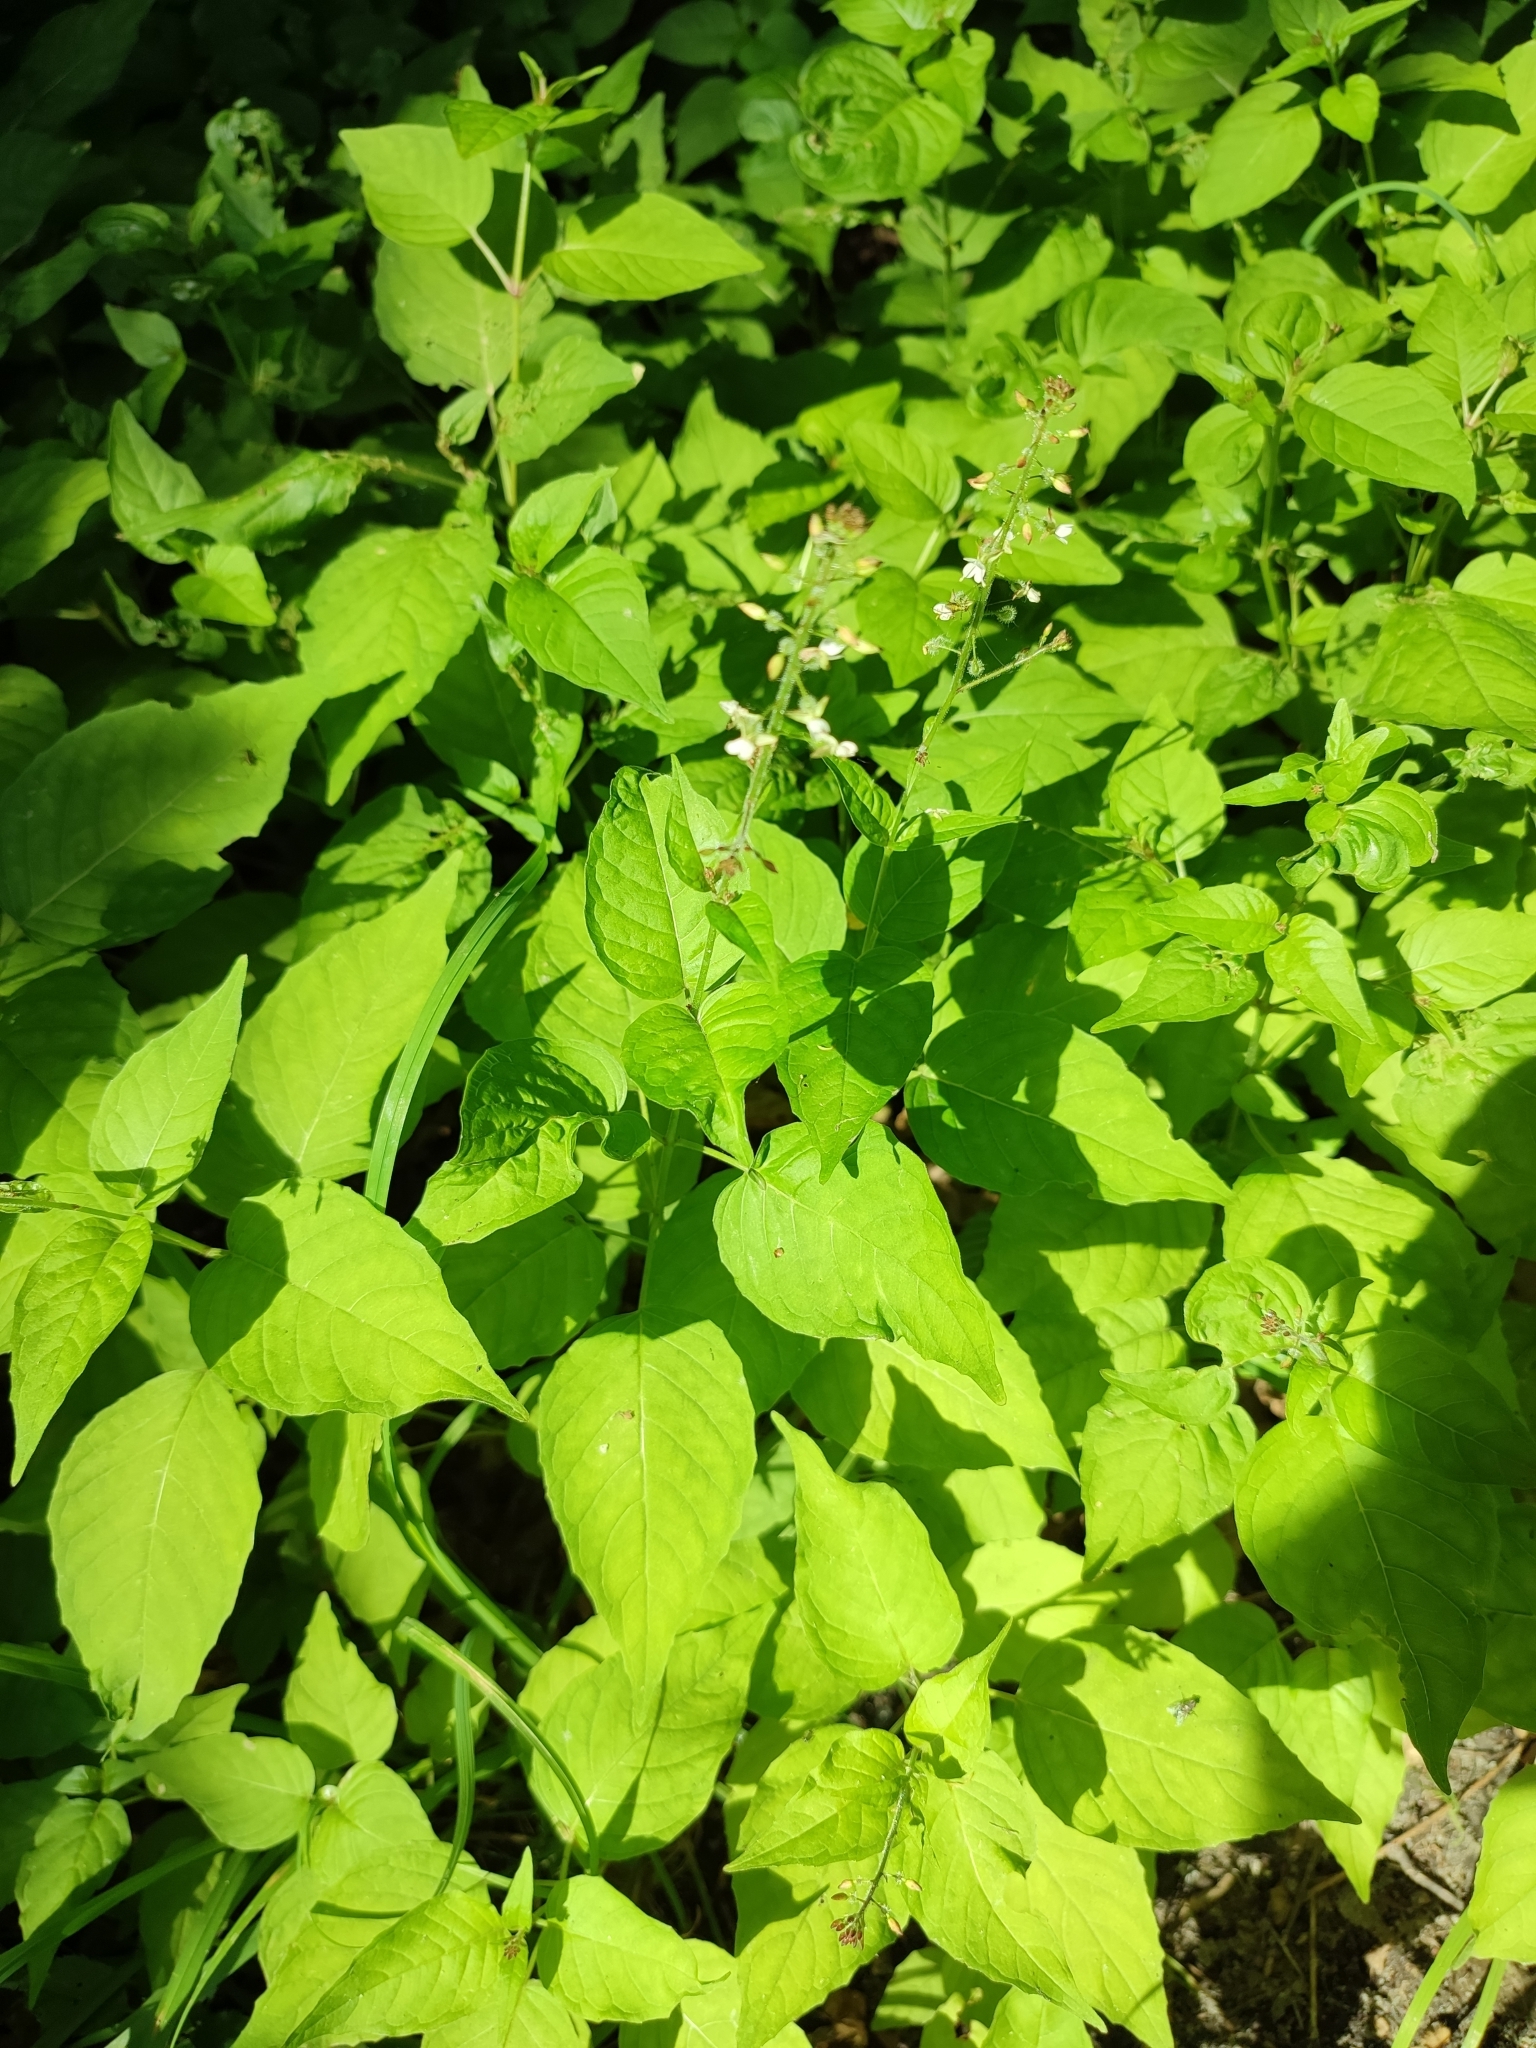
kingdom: Plantae
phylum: Tracheophyta
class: Magnoliopsida
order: Myrtales
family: Onagraceae
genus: Circaea
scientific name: Circaea lutetiana
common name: Enchanter's-nightshade
